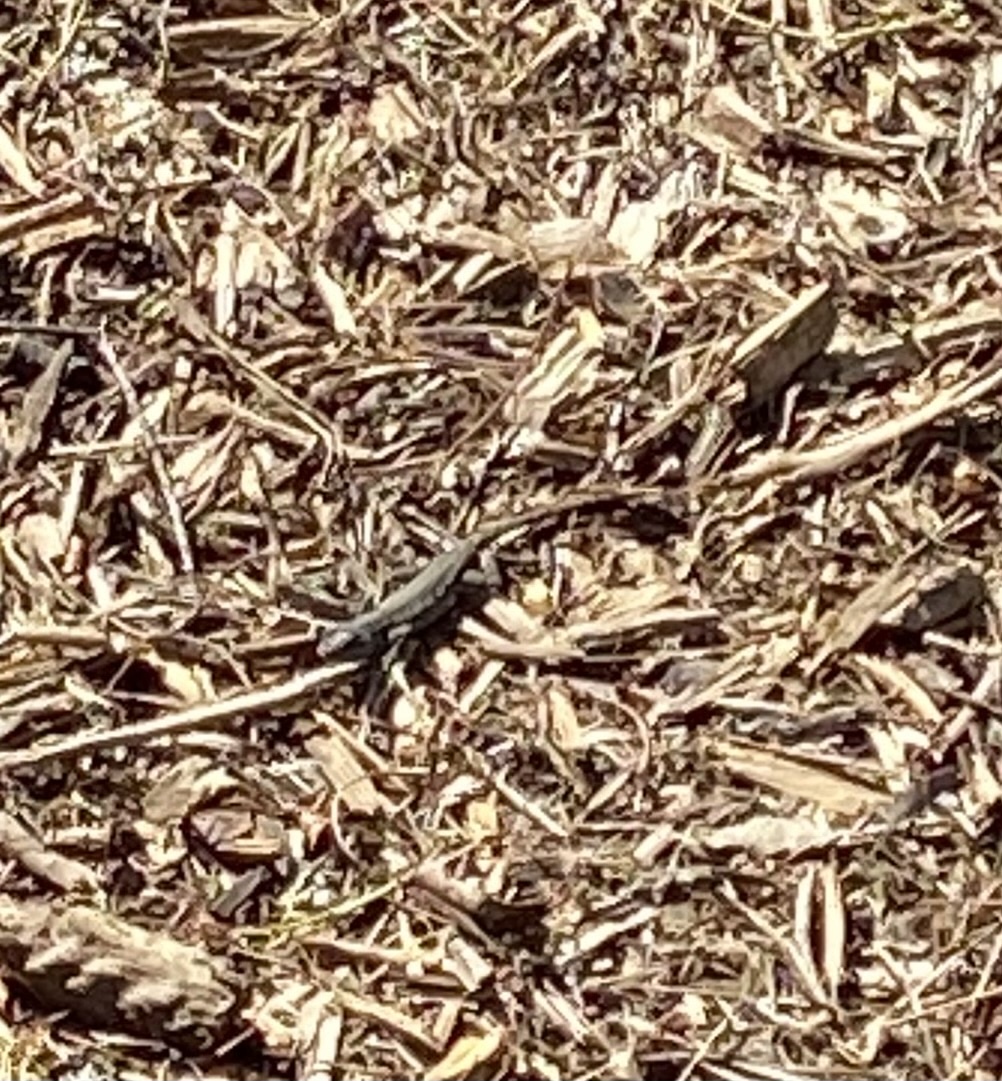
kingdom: Animalia
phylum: Chordata
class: Squamata
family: Phrynosomatidae
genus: Sceloporus
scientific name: Sceloporus occidentalis
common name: Western fence lizard
